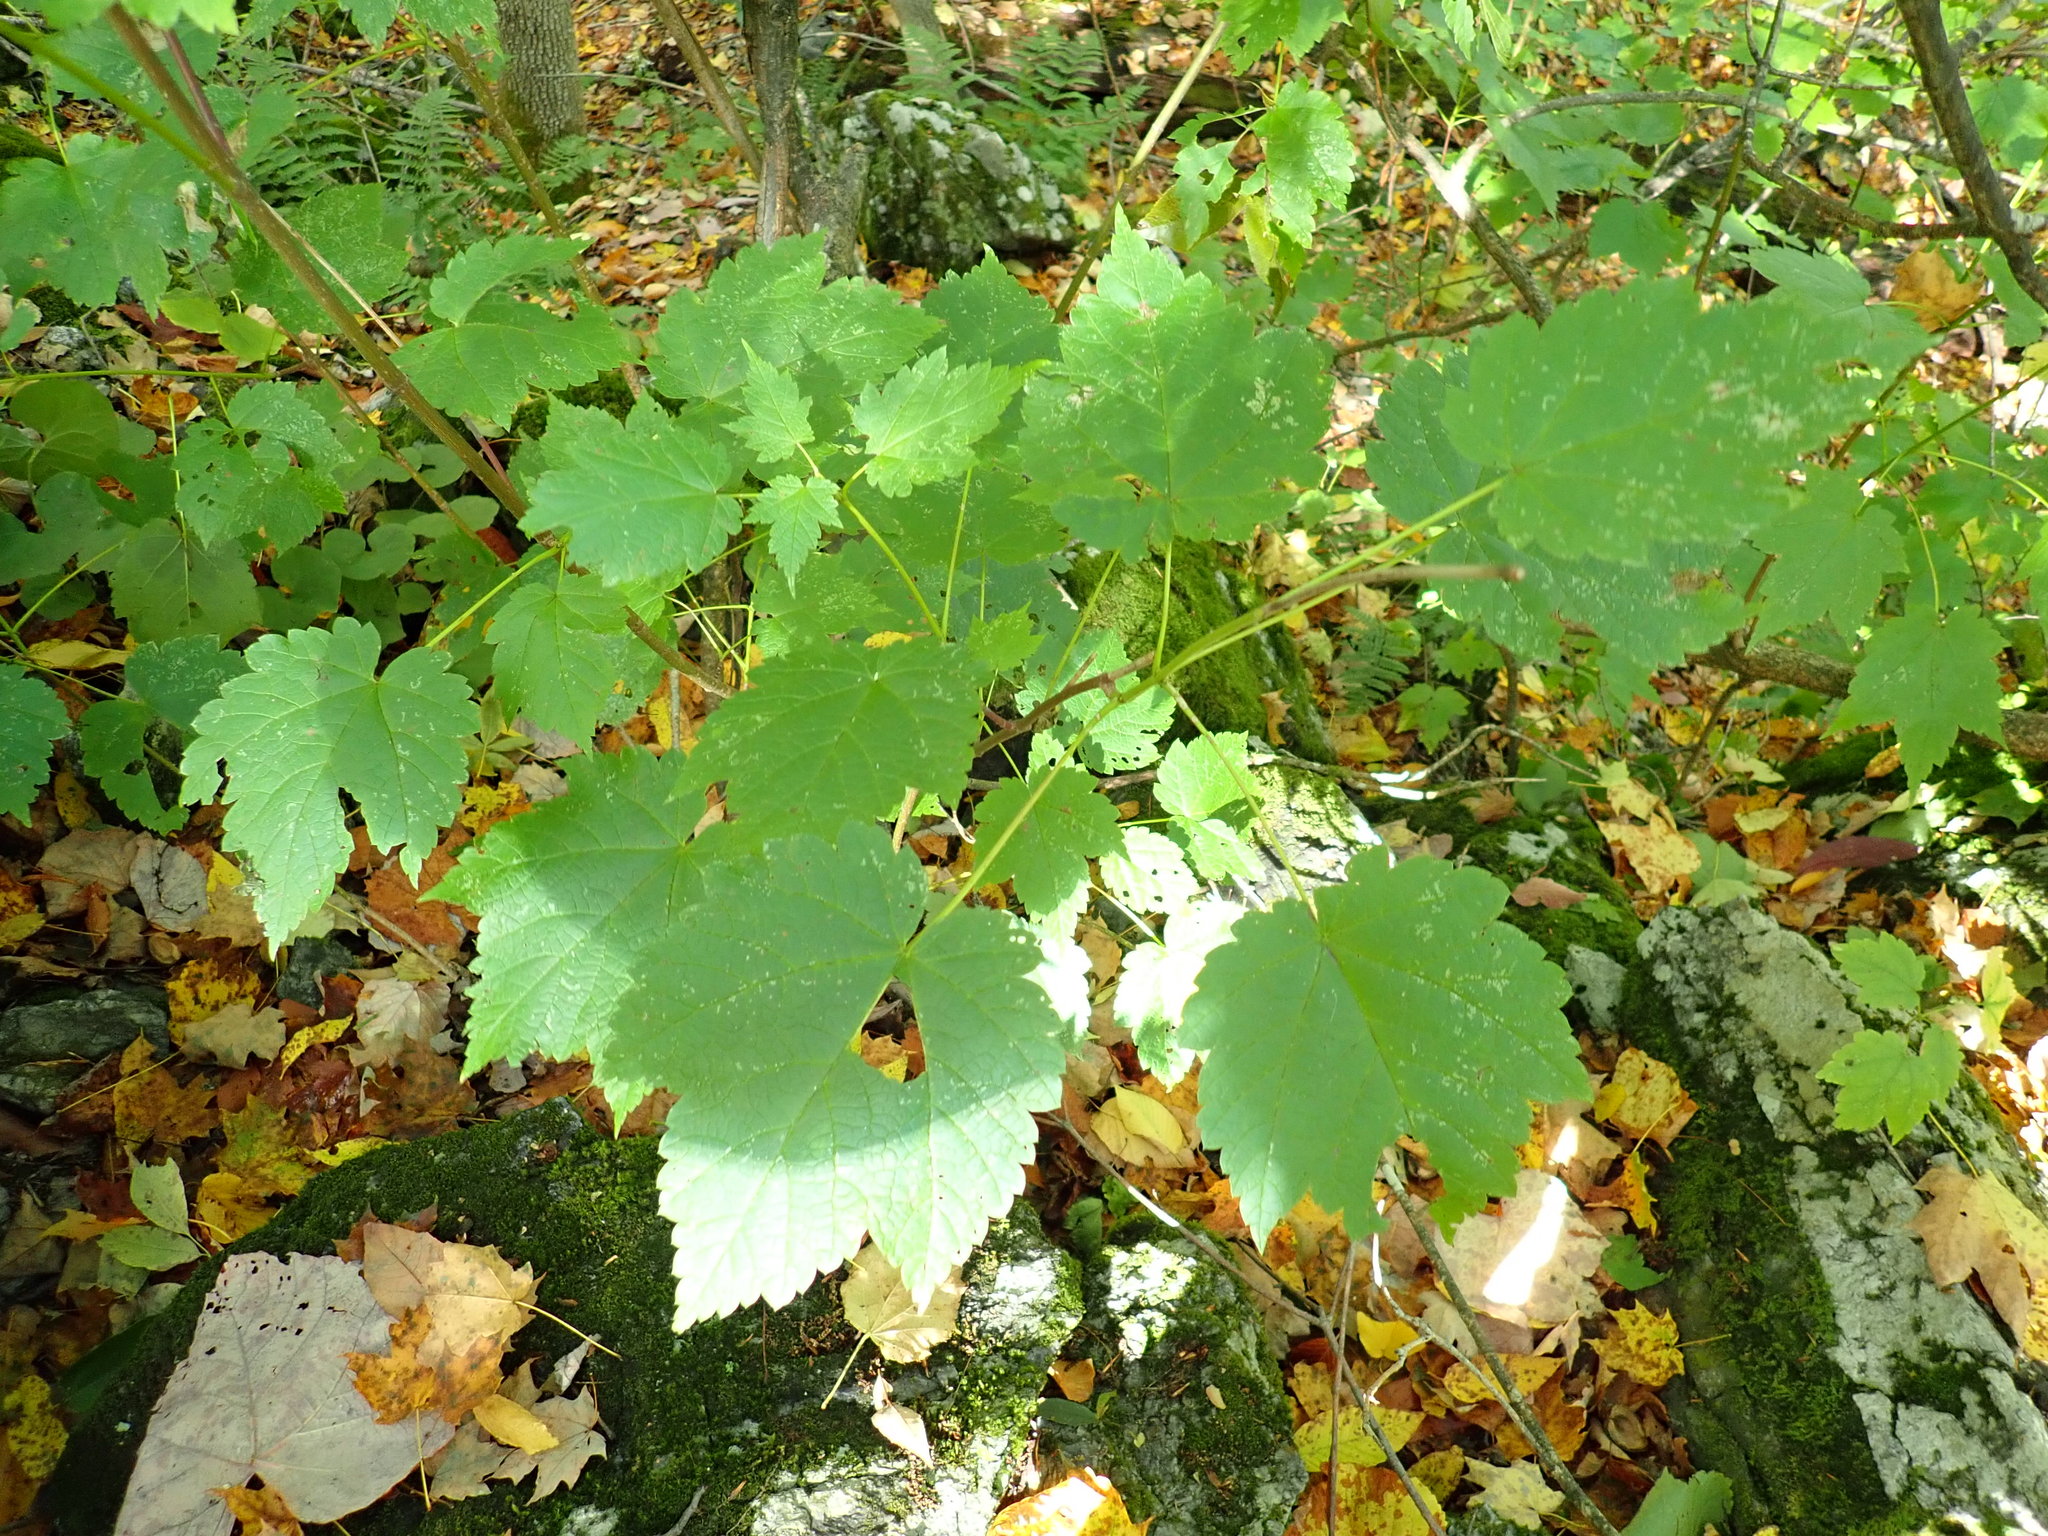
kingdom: Plantae
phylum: Tracheophyta
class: Magnoliopsida
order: Sapindales
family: Sapindaceae
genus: Acer
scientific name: Acer spicatum
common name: Mountain maple
